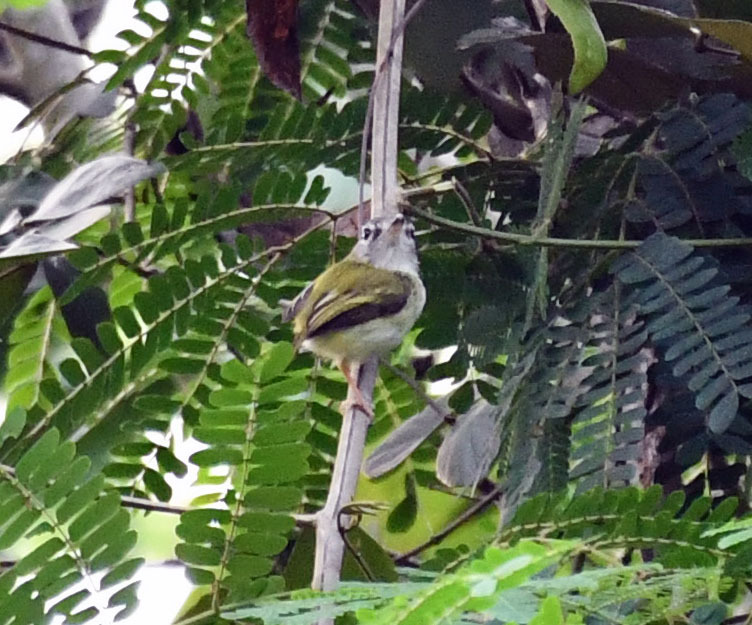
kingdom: Animalia
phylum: Chordata
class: Aves
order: Passeriformes
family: Tyrannidae
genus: Myiornis
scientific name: Myiornis ecaudatus
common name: Short-tailed pygmy tyrant
